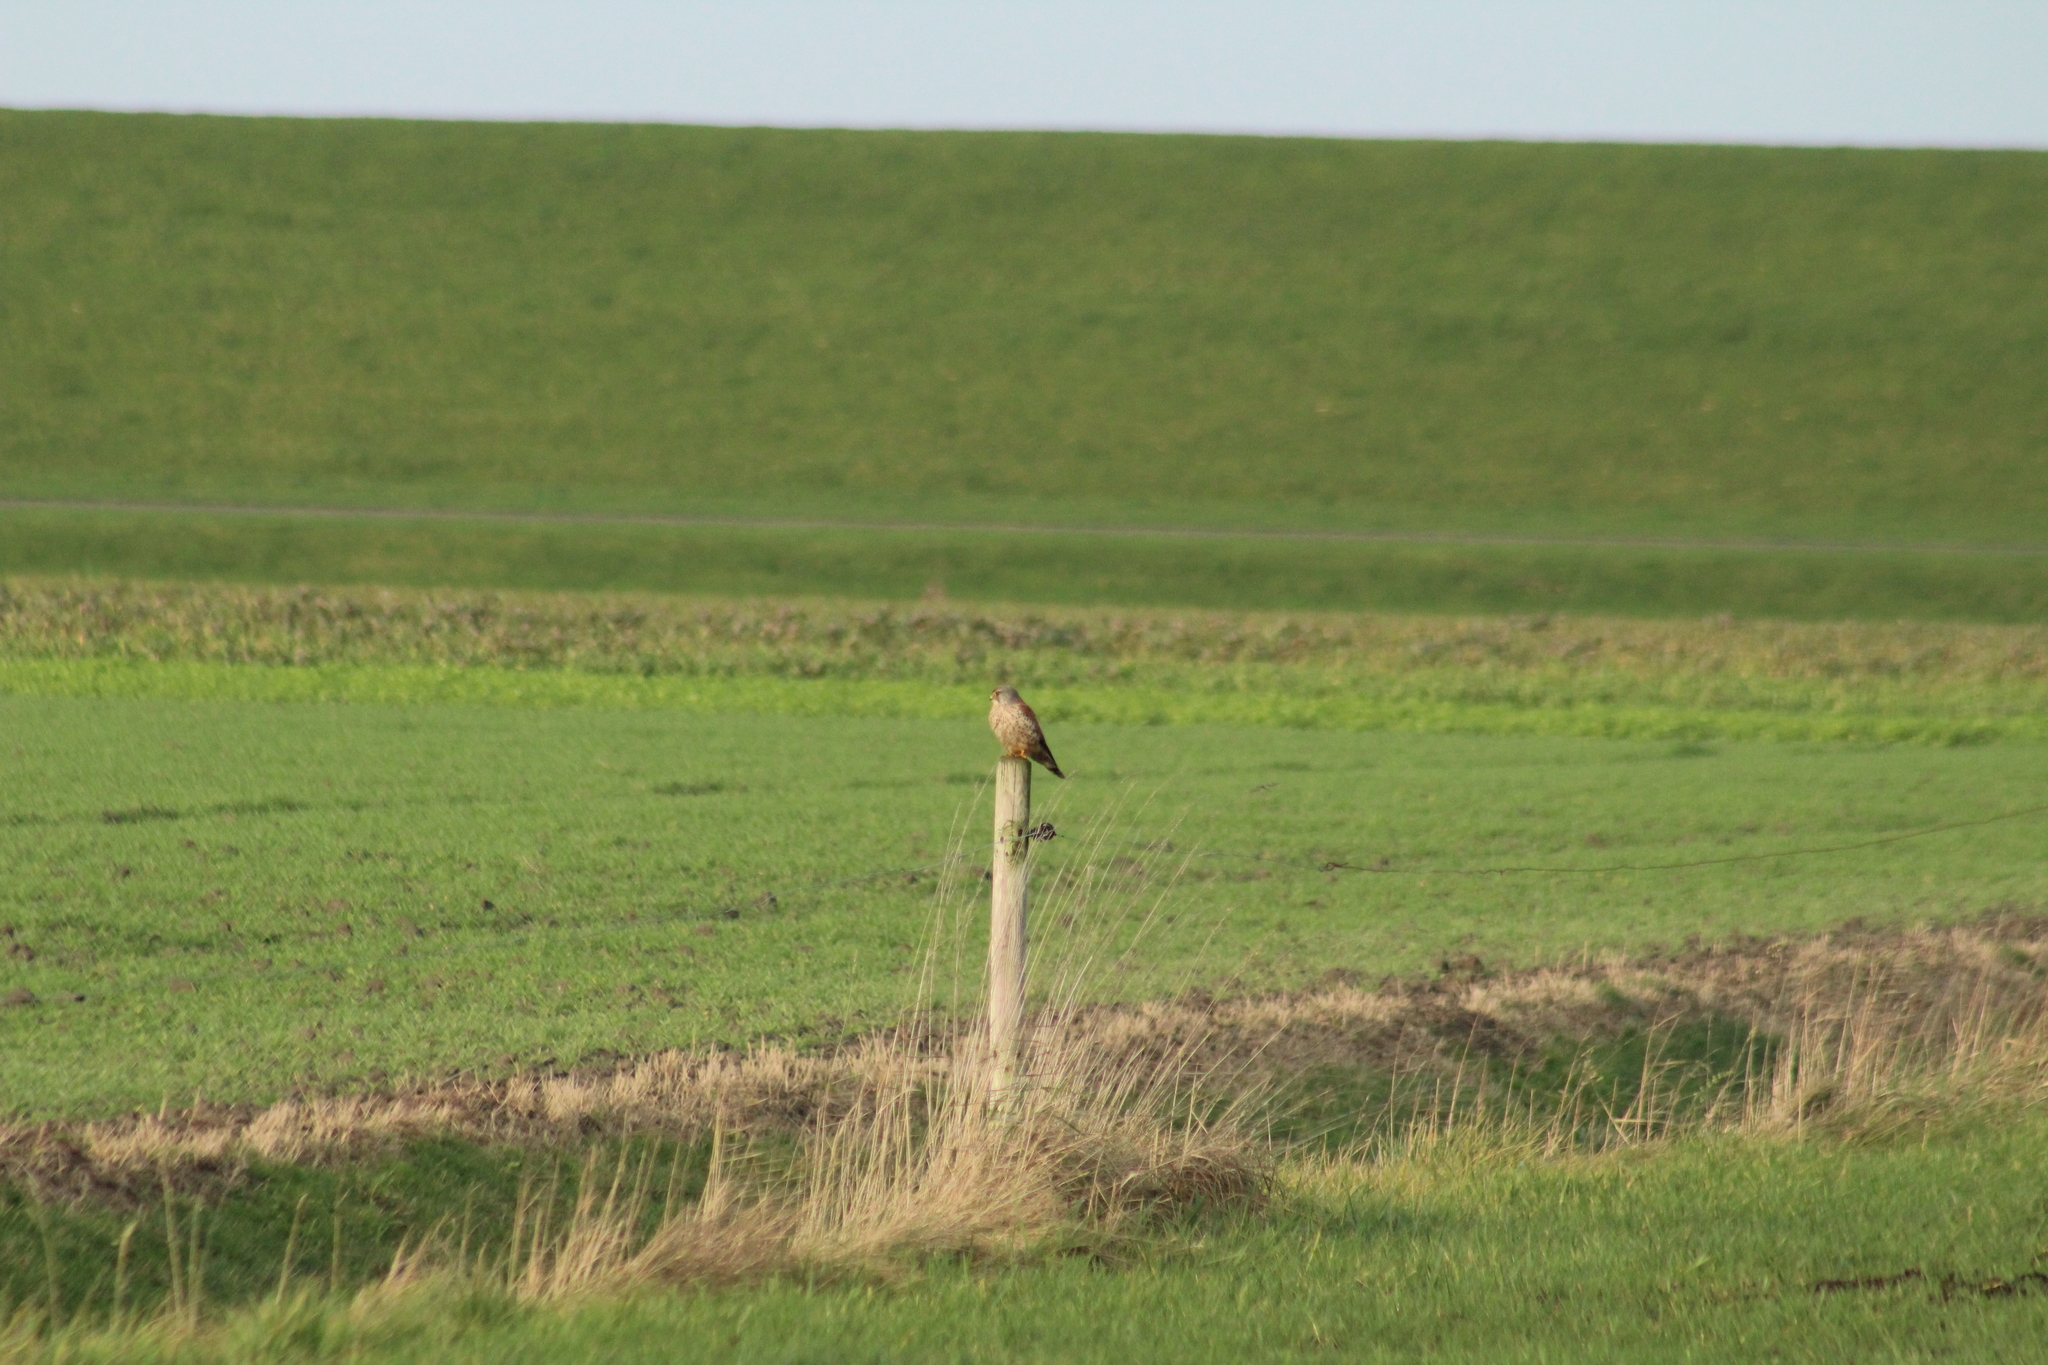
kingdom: Animalia
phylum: Chordata
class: Aves
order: Falconiformes
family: Falconidae
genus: Falco
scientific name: Falco tinnunculus
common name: Common kestrel
